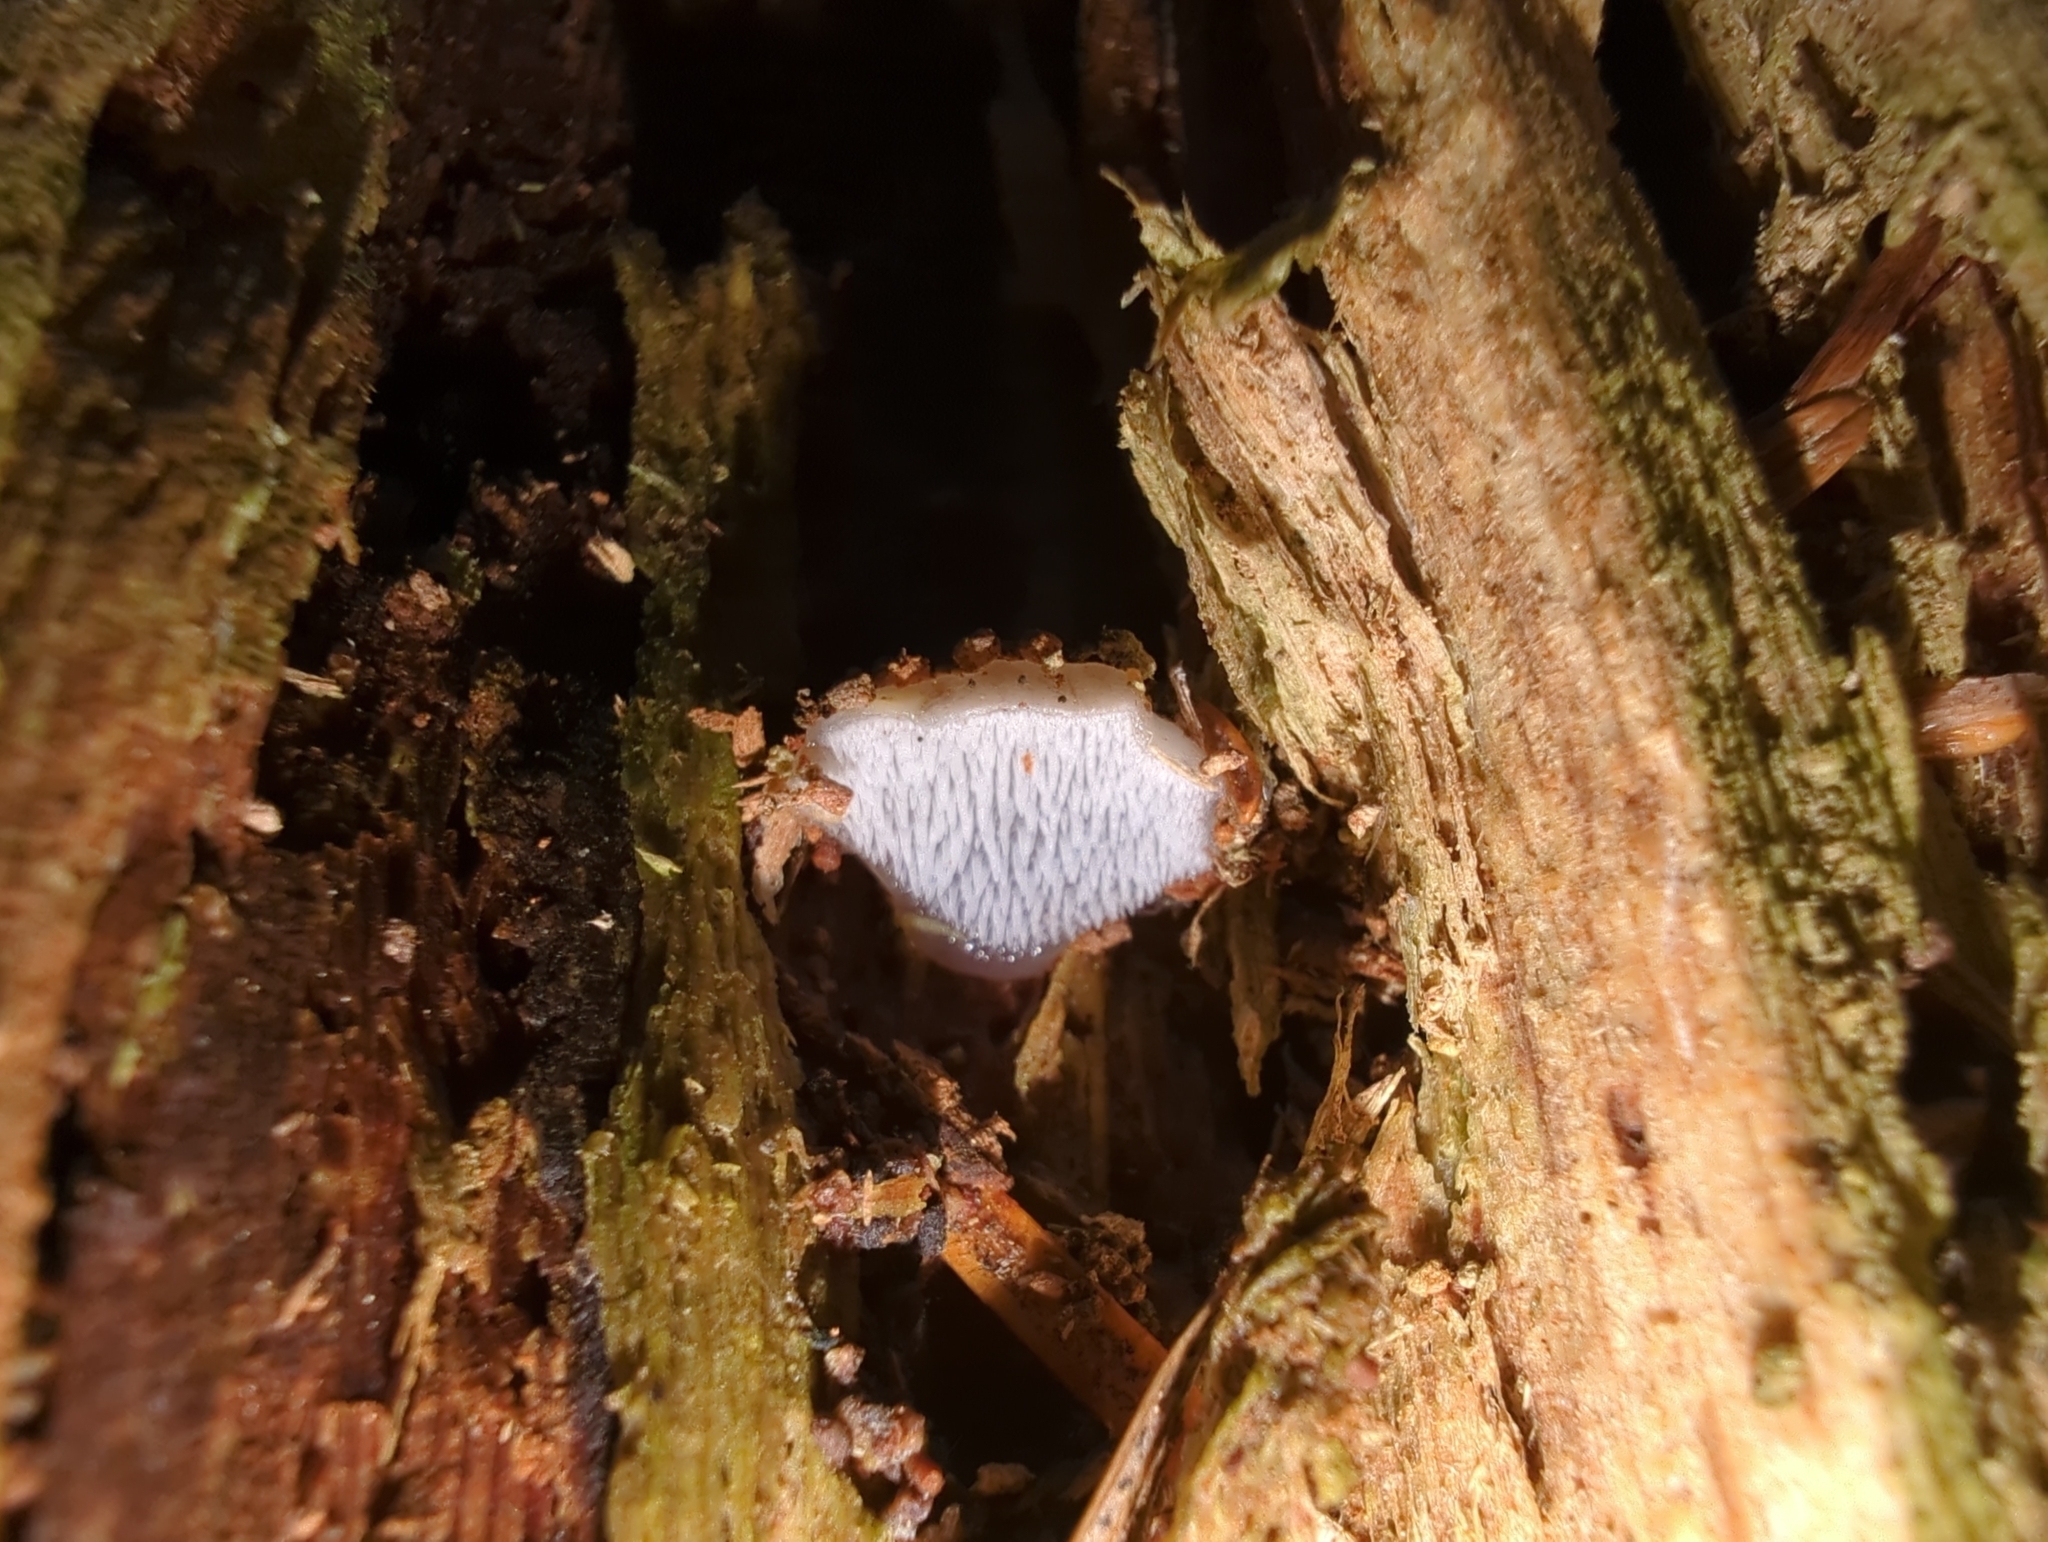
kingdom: Fungi
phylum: Basidiomycota
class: Agaricomycetes
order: Auriculariales
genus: Pseudohydnum
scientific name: Pseudohydnum gelatinosum
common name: Jelly tongue
